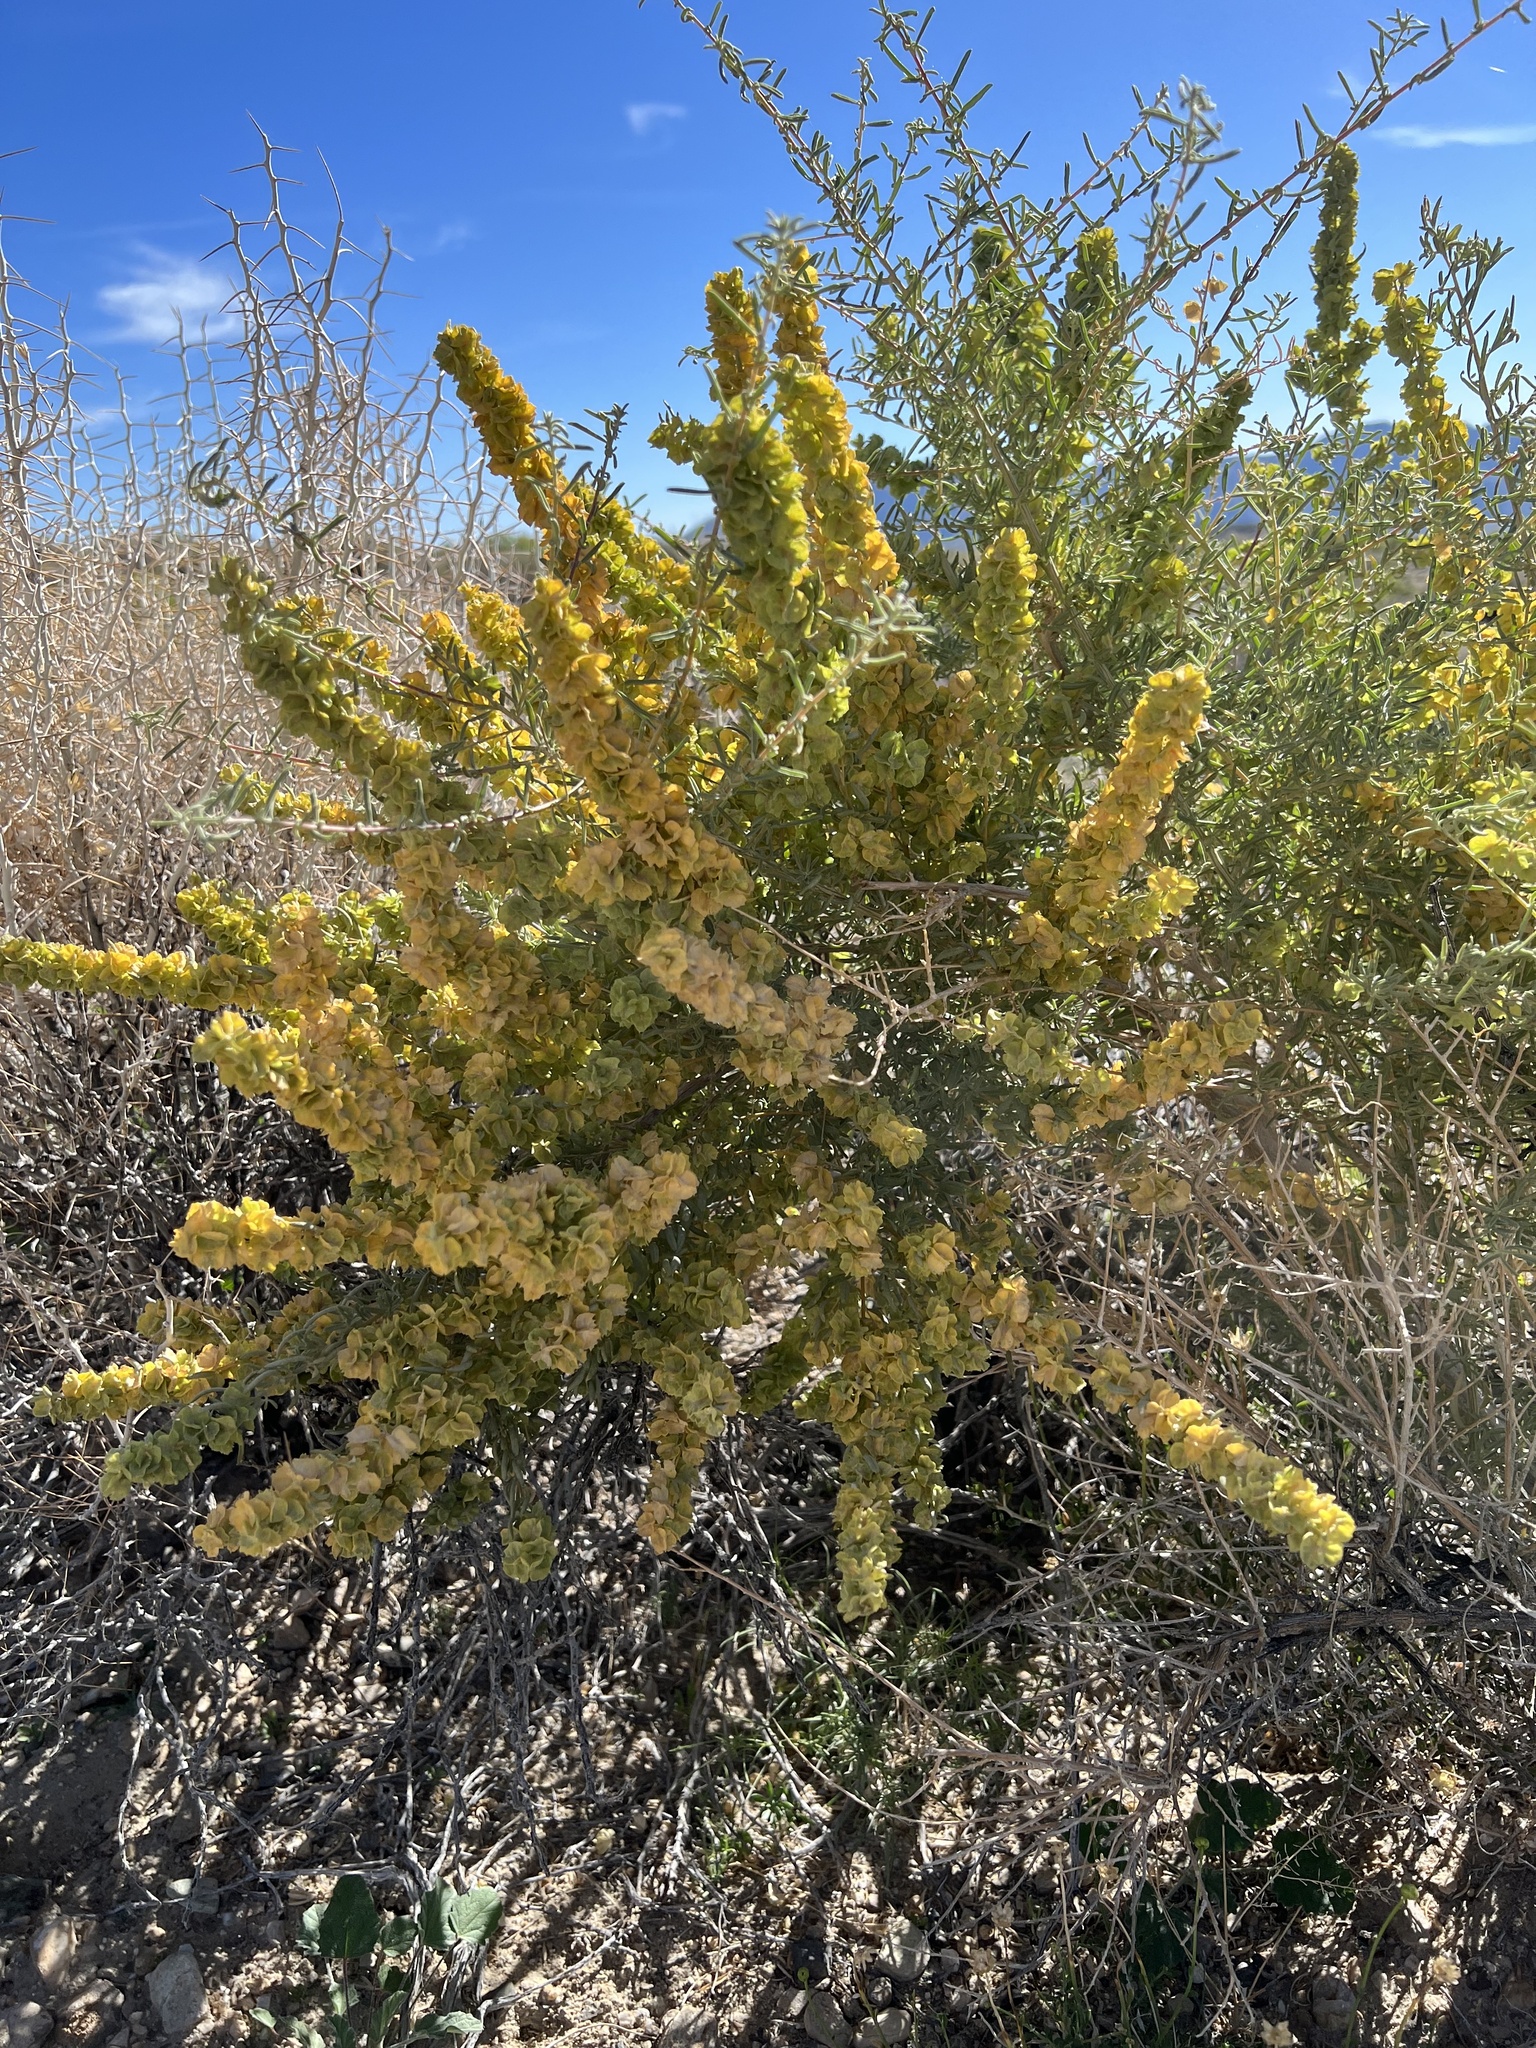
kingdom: Plantae
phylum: Tracheophyta
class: Magnoliopsida
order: Caryophyllales
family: Amaranthaceae
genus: Atriplex
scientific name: Atriplex canescens
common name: Four-wing saltbush
